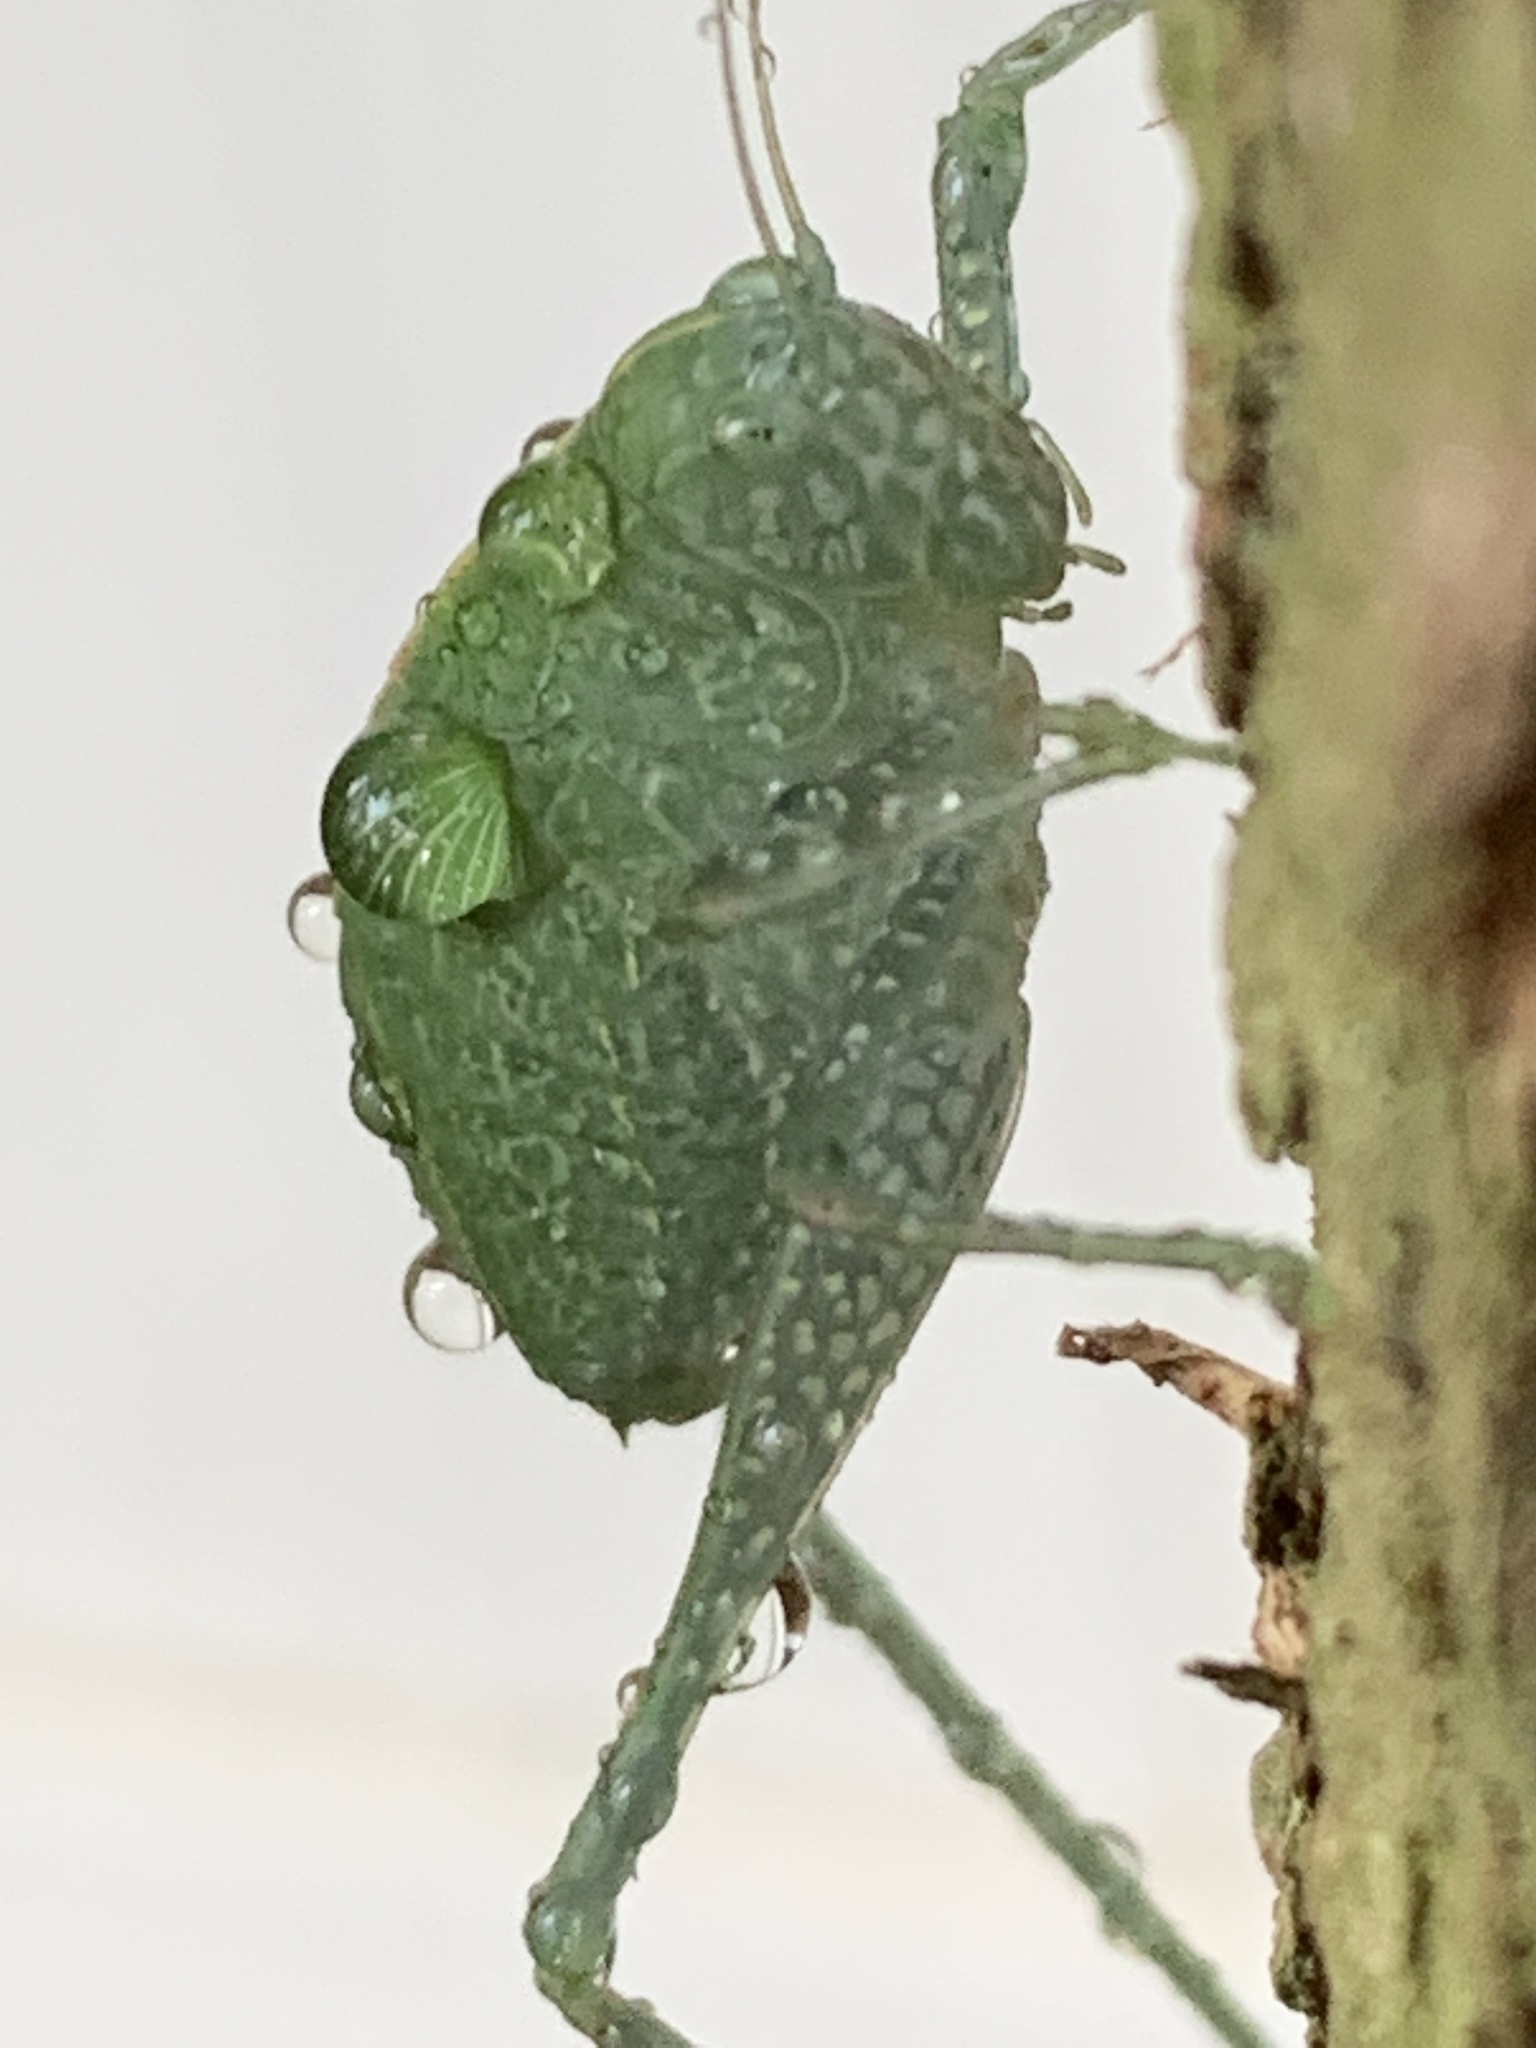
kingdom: Animalia
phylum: Arthropoda
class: Insecta
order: Orthoptera
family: Tettigoniidae
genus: Microcentrum
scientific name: Microcentrum rhombifolium
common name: Broad-winged katydid
